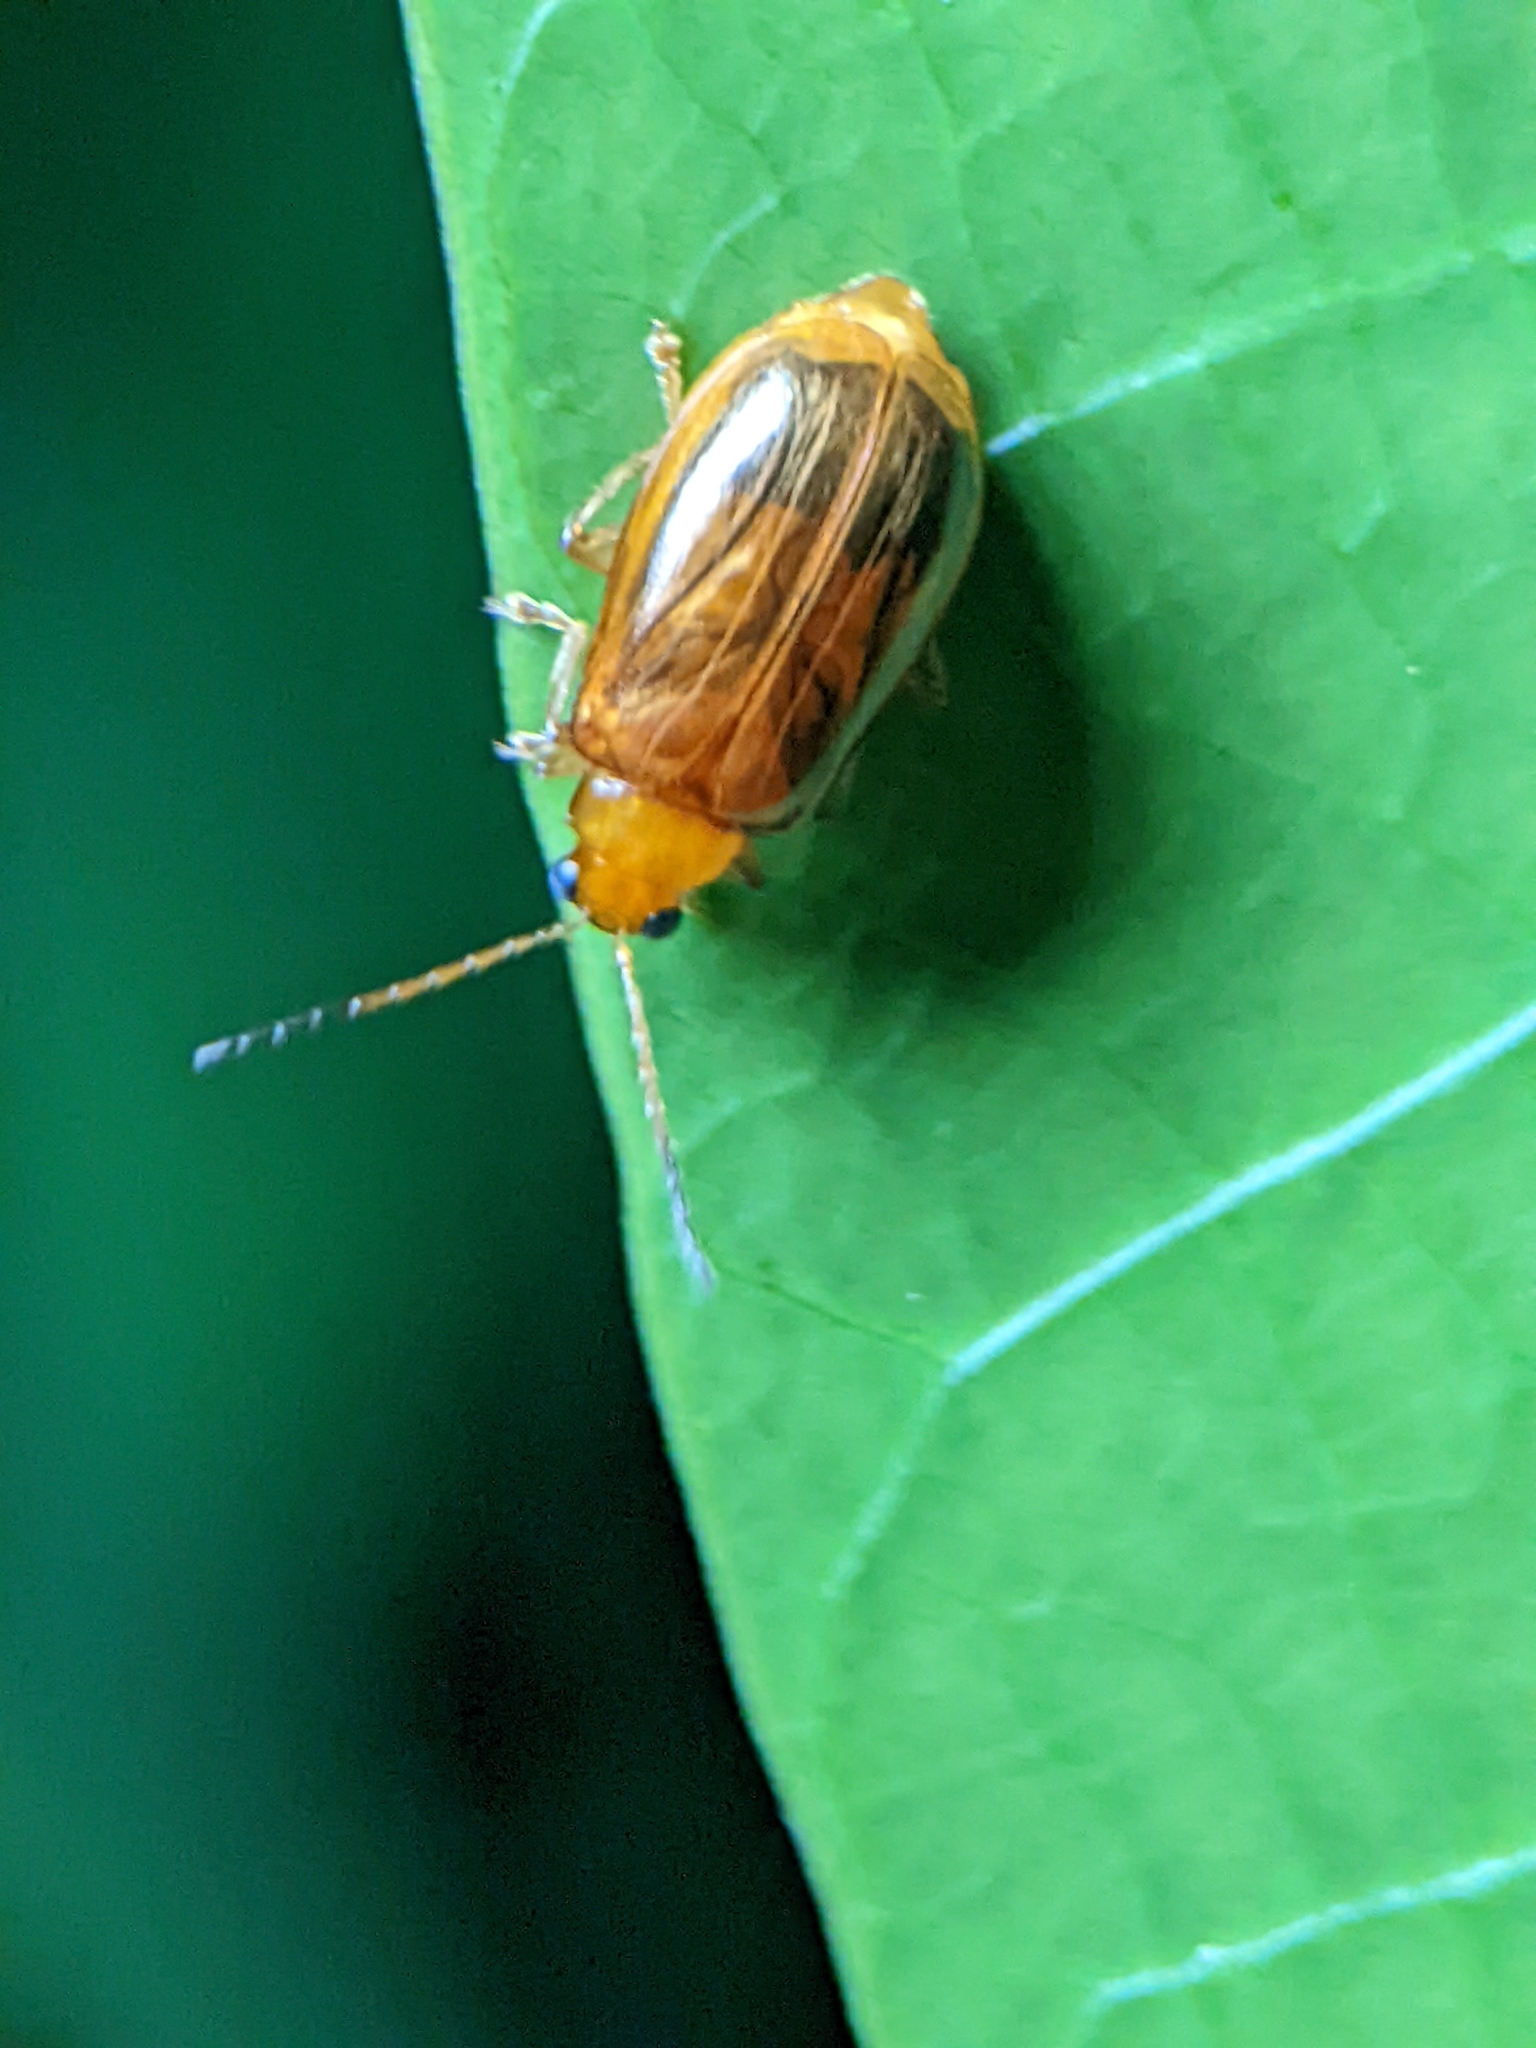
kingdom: Animalia
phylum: Arthropoda
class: Insecta
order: Coleoptera
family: Chrysomelidae
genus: Aulacophora
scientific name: Aulacophora indica
